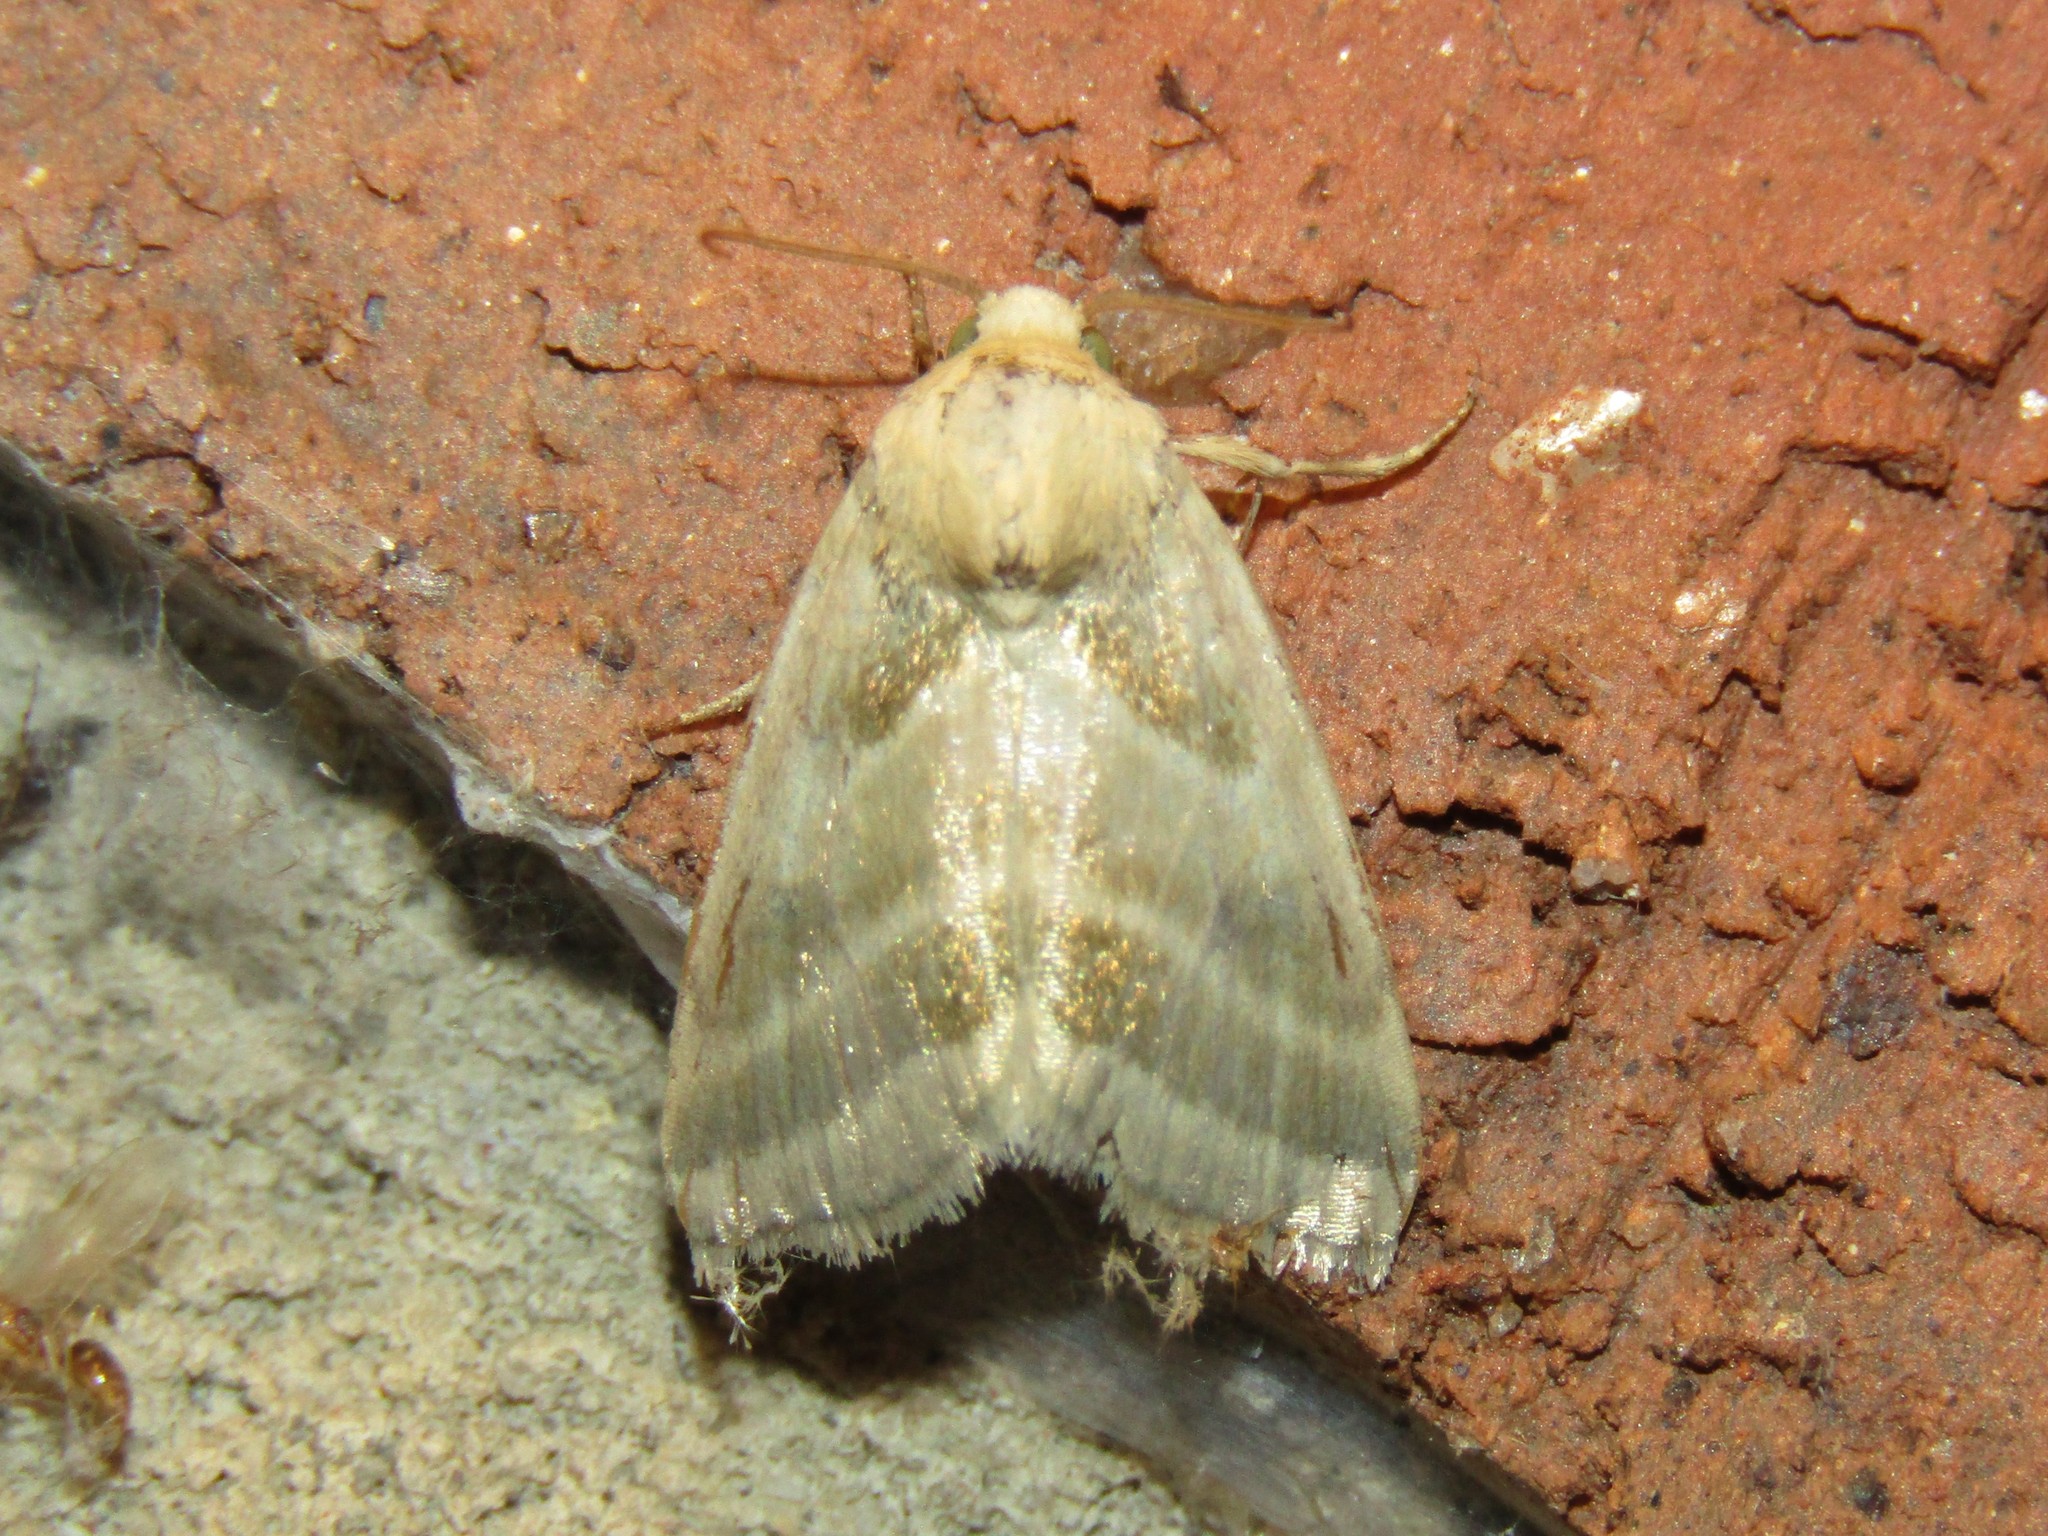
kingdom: Animalia
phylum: Arthropoda
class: Insecta
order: Lepidoptera
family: Noctuidae
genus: Schinia
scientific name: Schinia trifascia
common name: Three-lined flower moth
